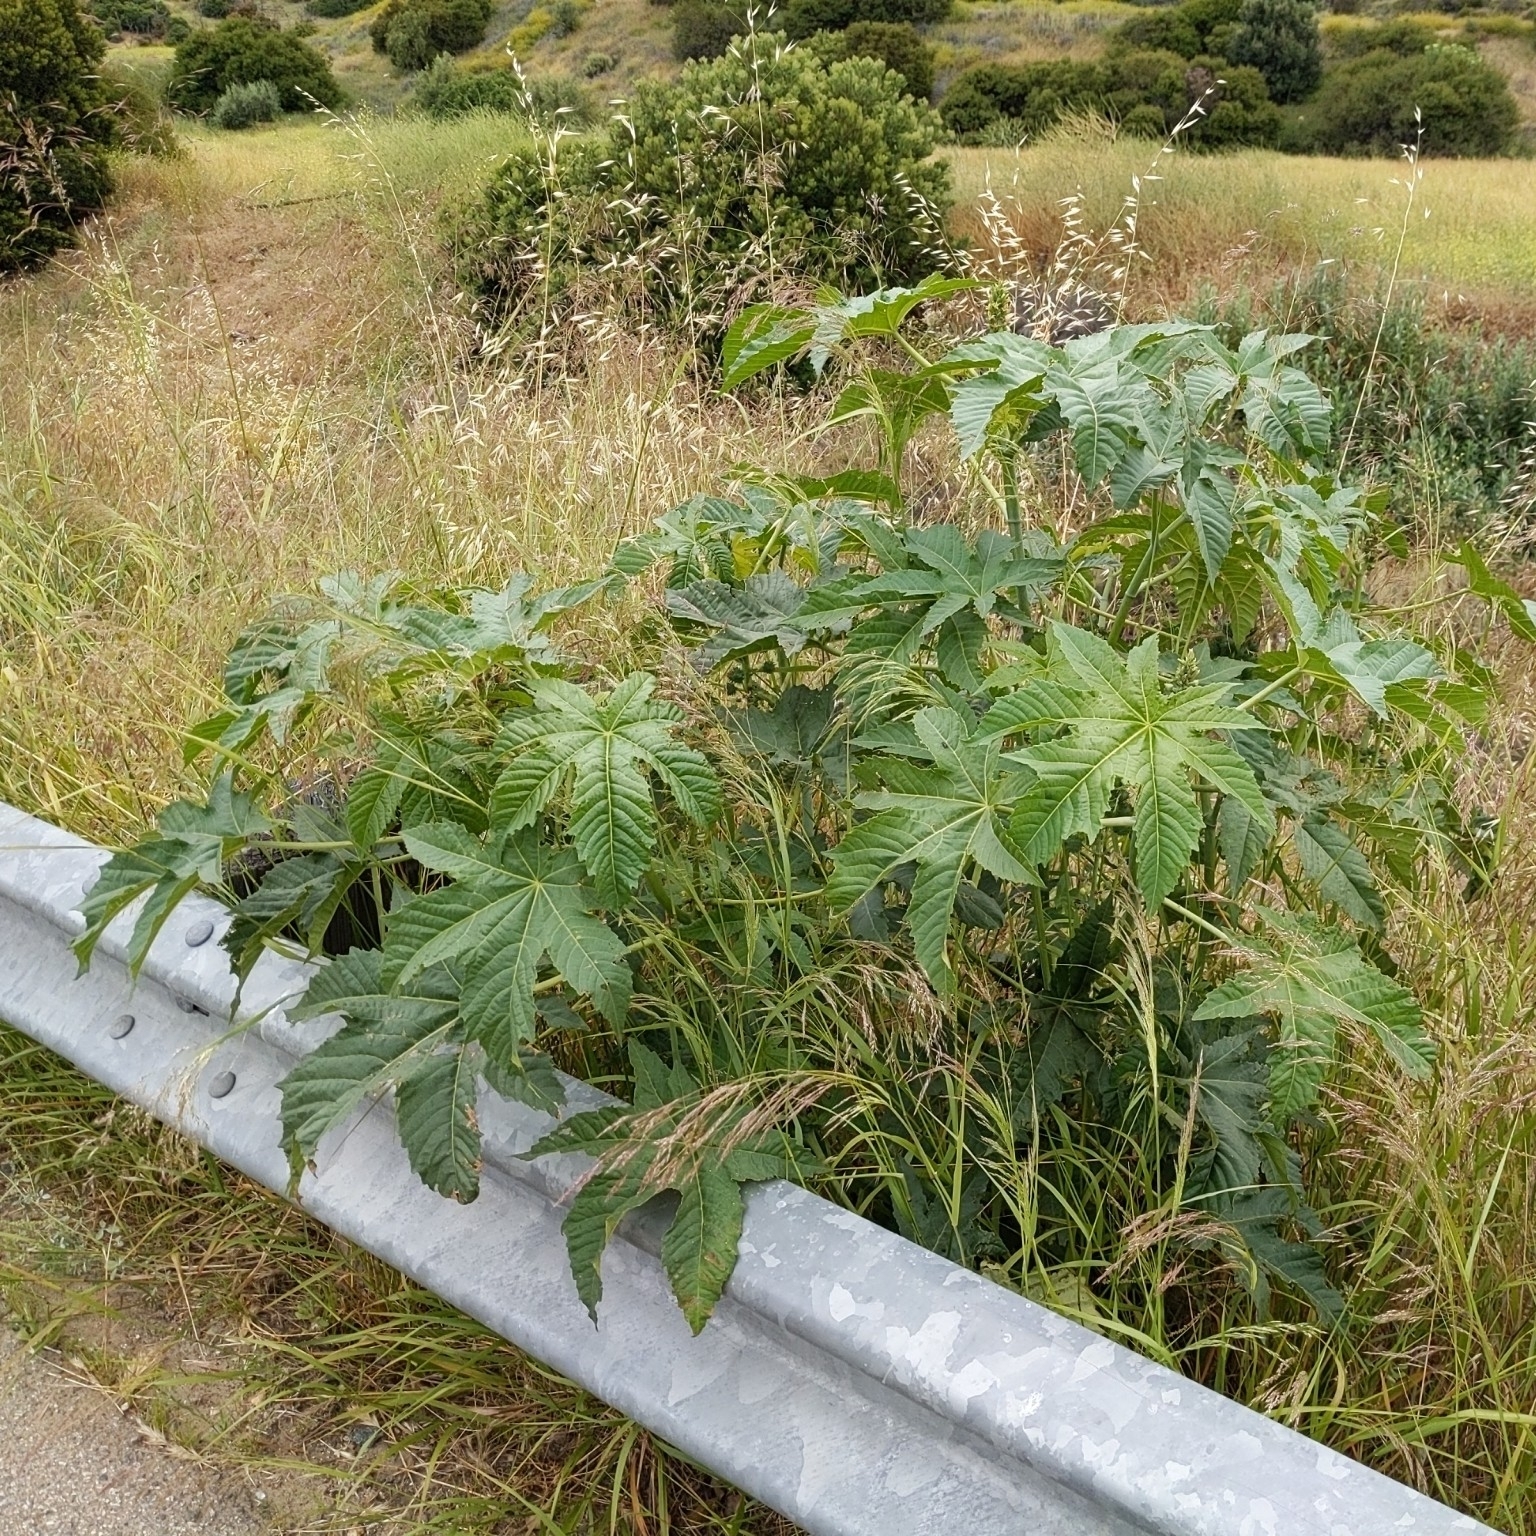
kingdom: Plantae
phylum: Tracheophyta
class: Magnoliopsida
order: Malpighiales
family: Euphorbiaceae
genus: Ricinus
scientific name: Ricinus communis
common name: Castor-oil-plant
